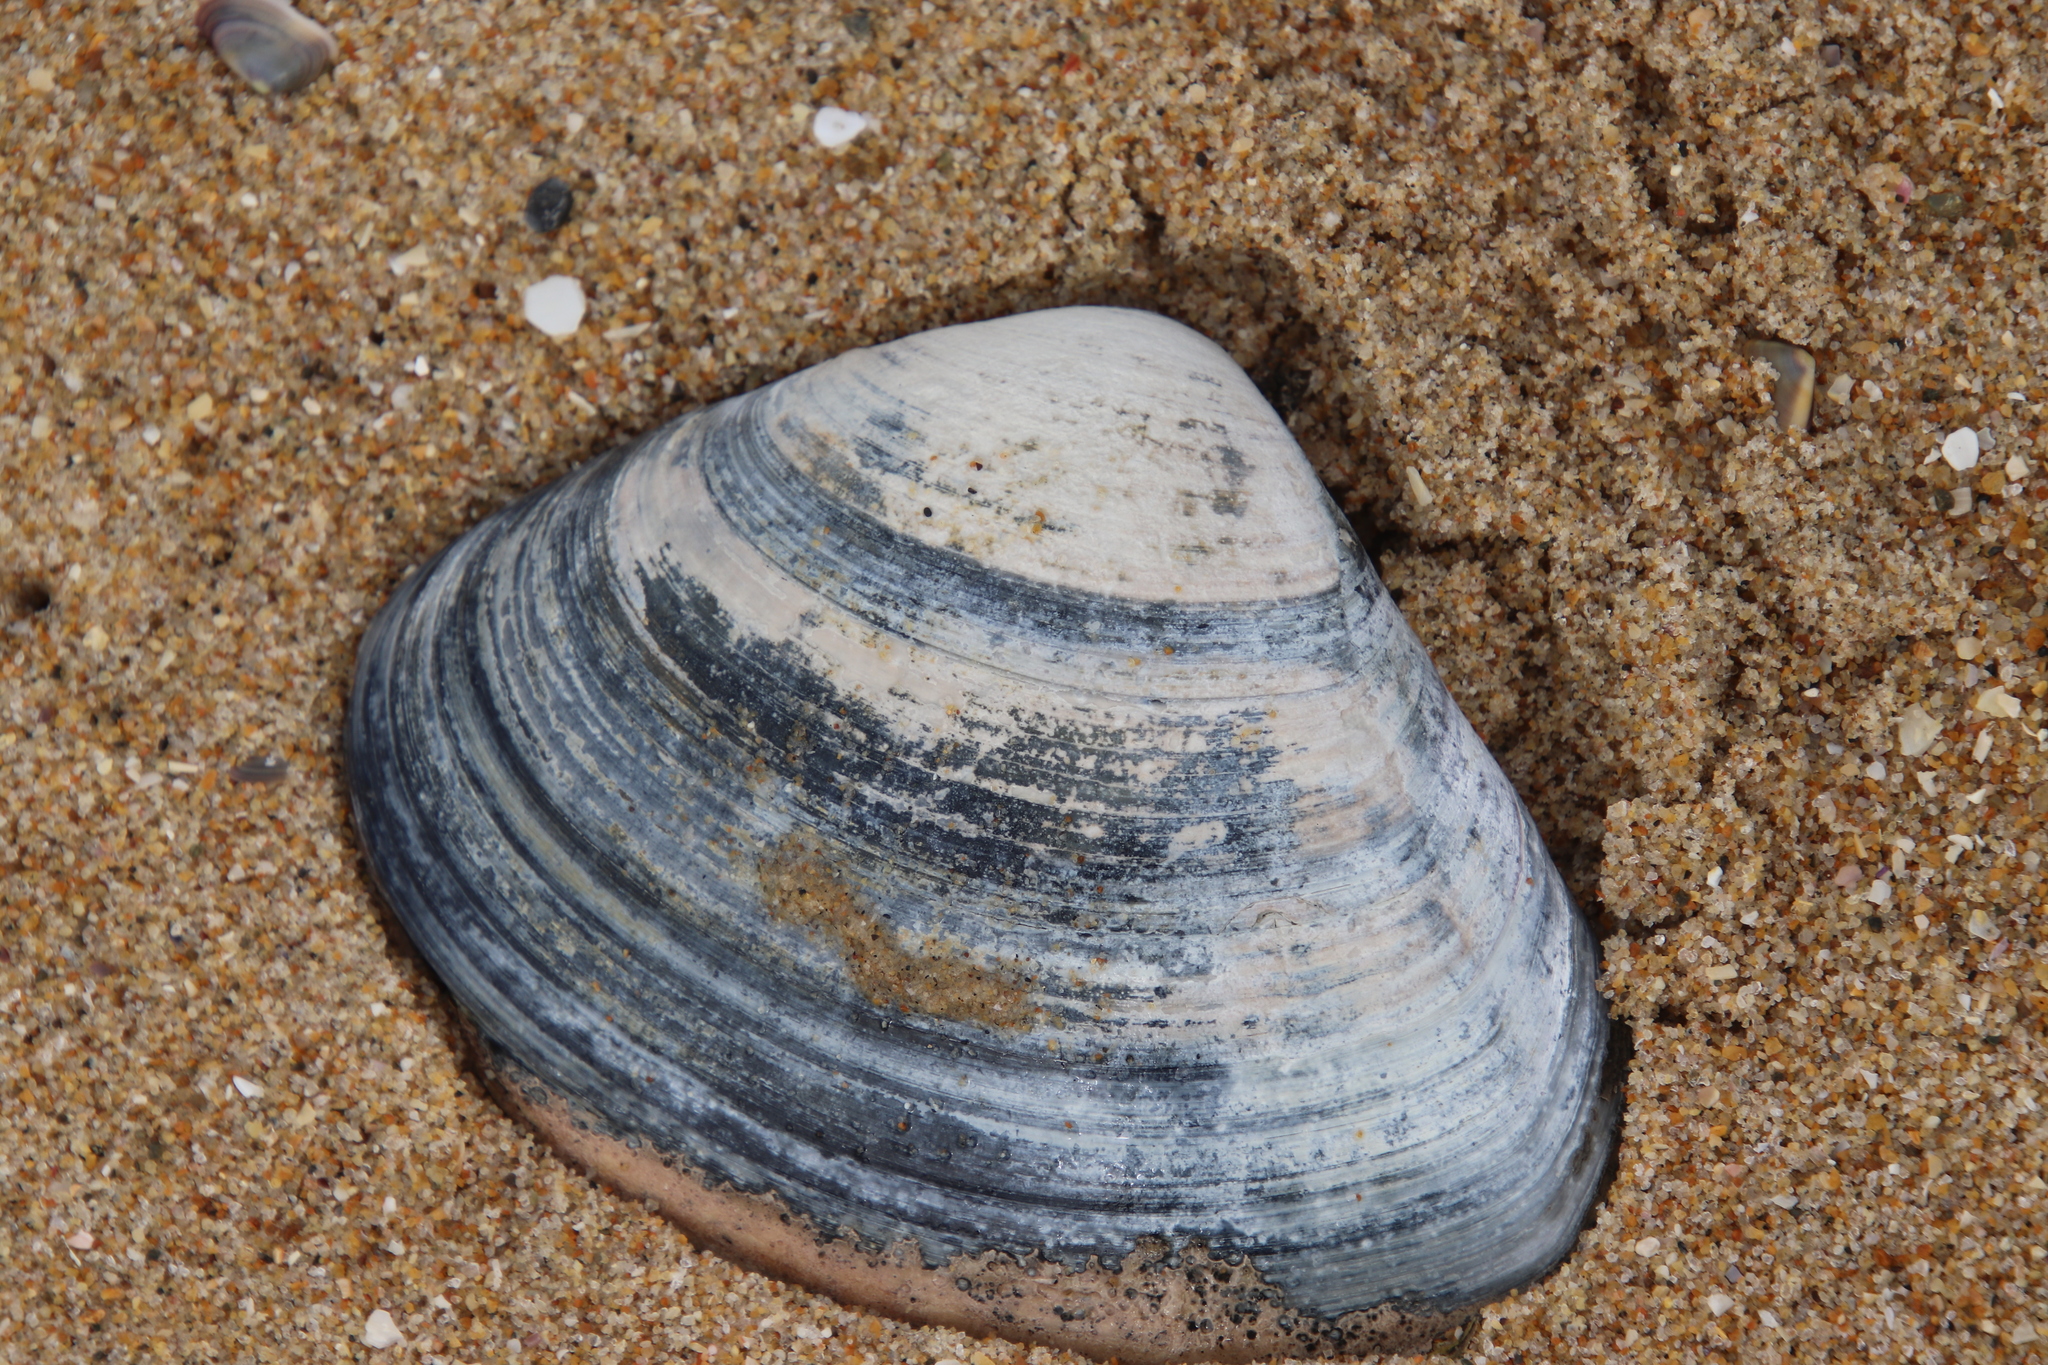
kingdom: Animalia
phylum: Mollusca
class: Bivalvia
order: Venerida
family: Veneridae
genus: Tivela
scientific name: Tivela stultorum
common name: Pismo clam
